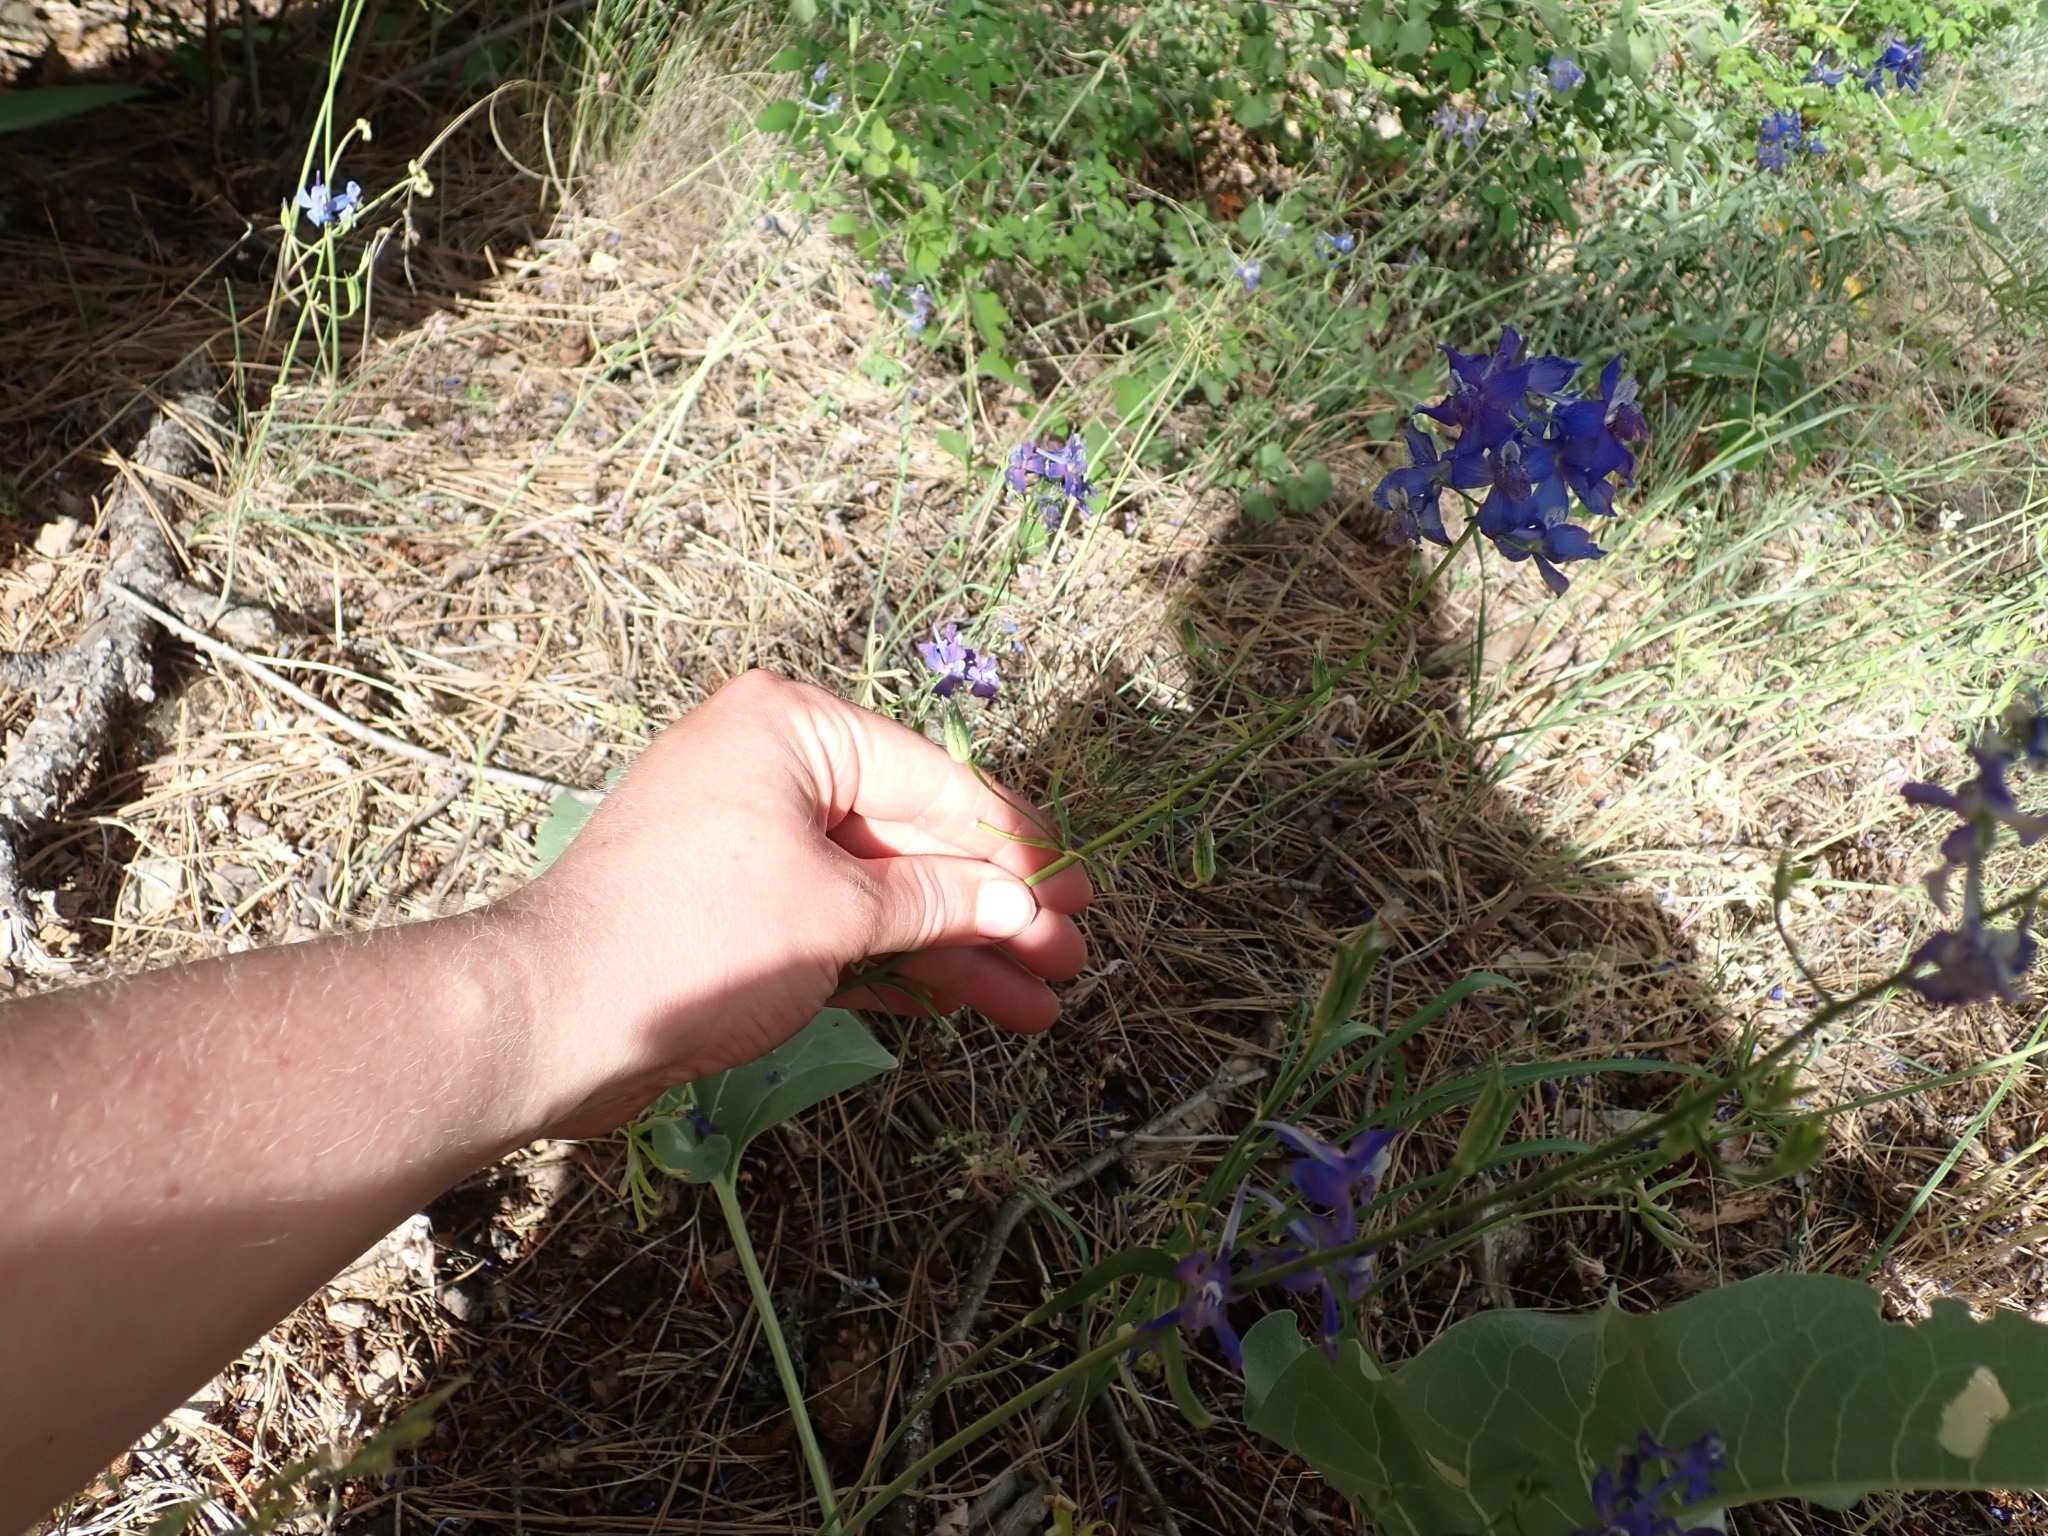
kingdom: Plantae
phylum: Tracheophyta
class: Magnoliopsida
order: Ranunculales
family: Ranunculaceae
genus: Delphinium
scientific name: Delphinium nuttallianum
